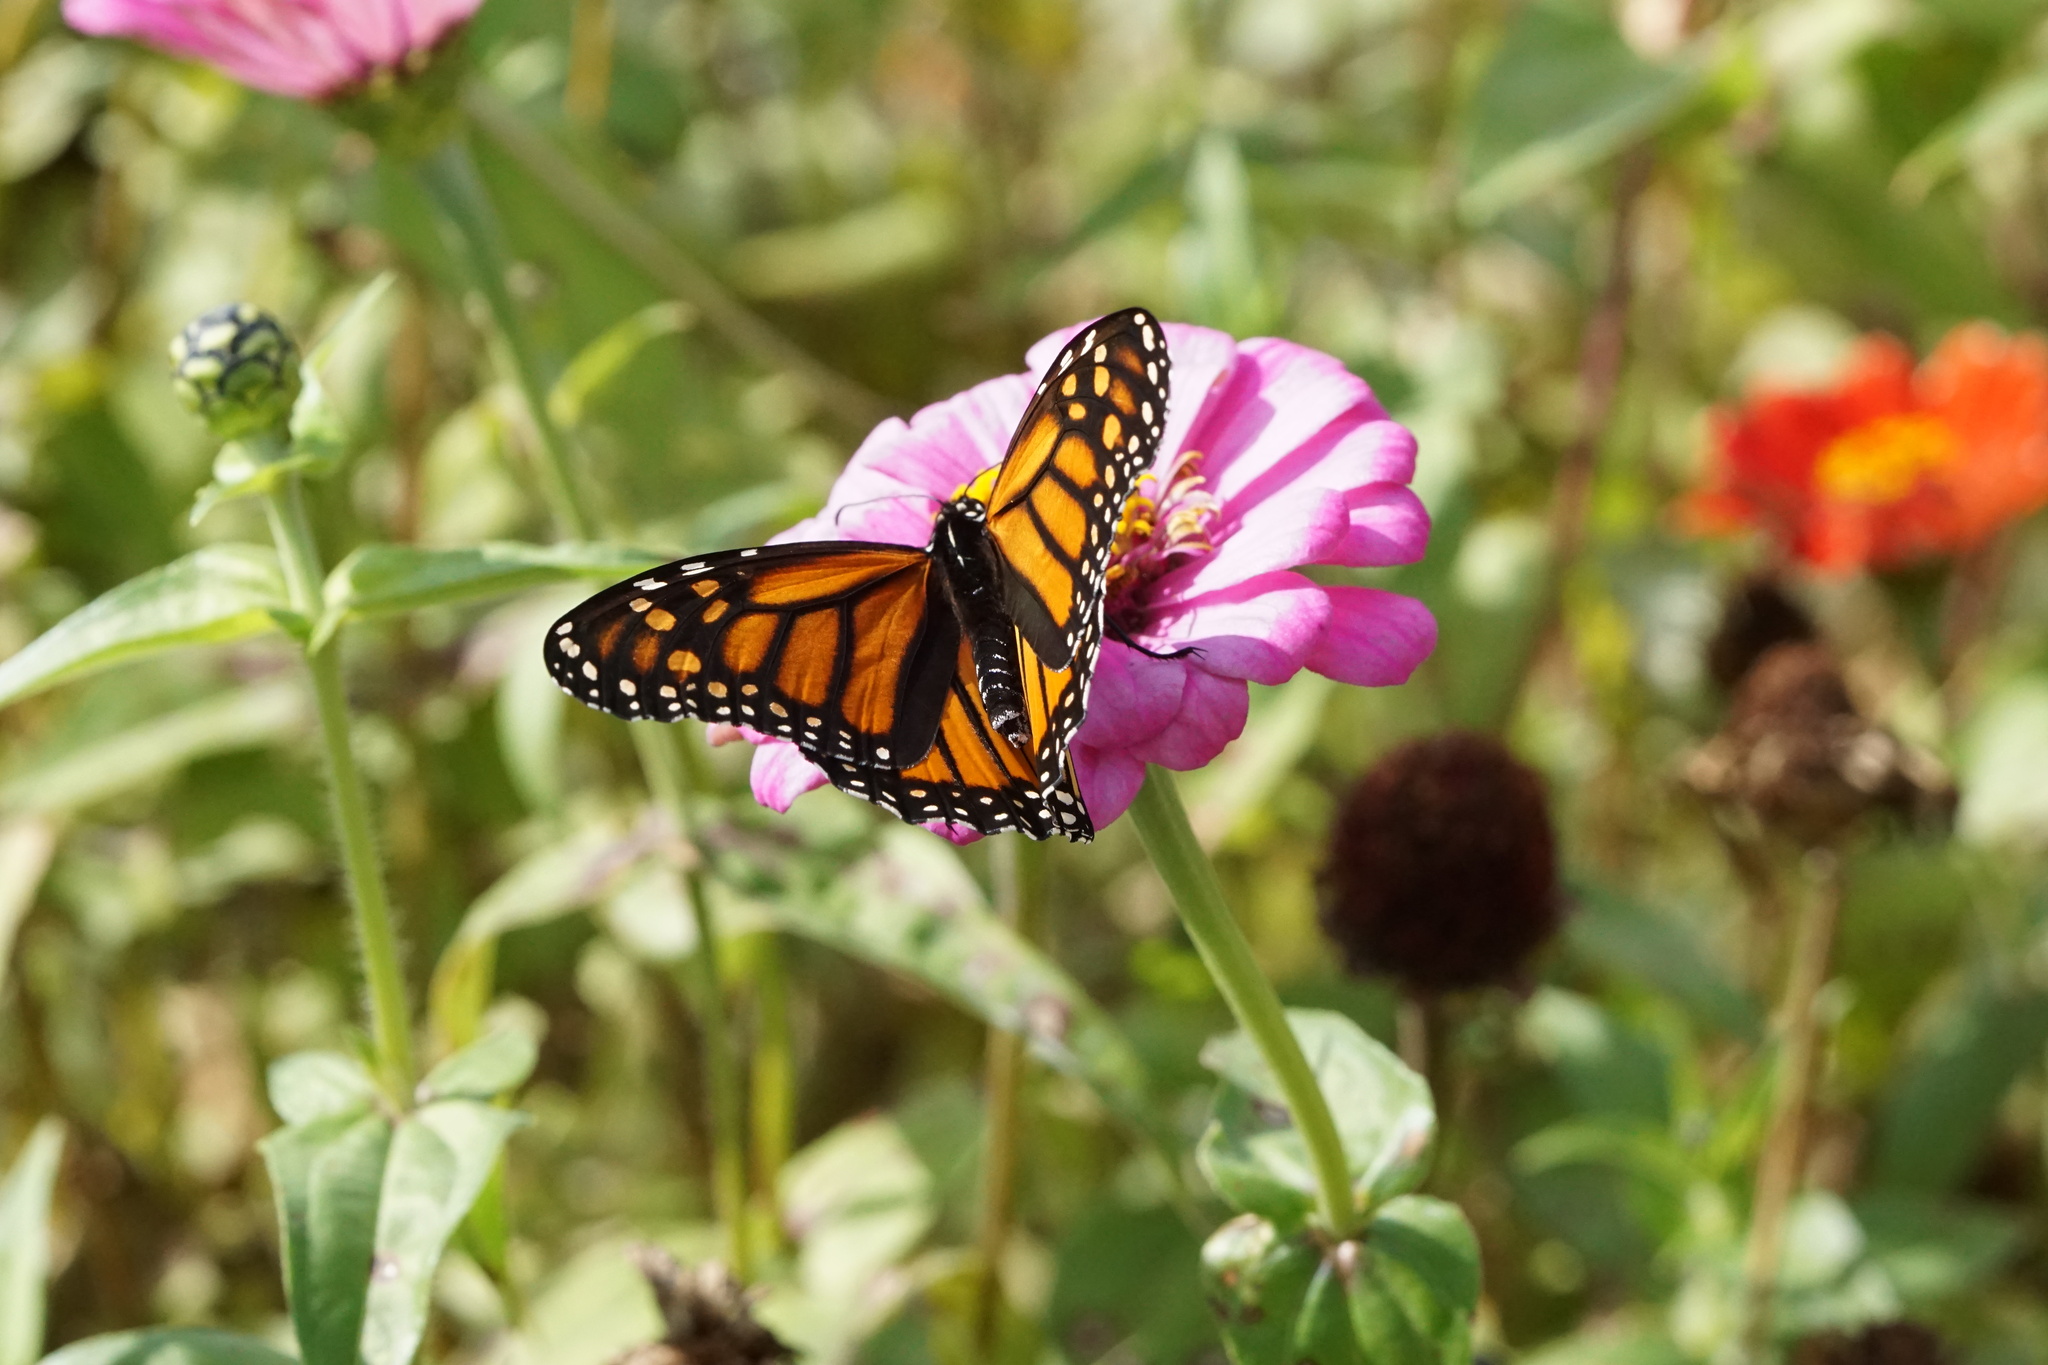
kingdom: Animalia
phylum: Arthropoda
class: Insecta
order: Lepidoptera
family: Nymphalidae
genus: Danaus
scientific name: Danaus plexippus
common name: Monarch
